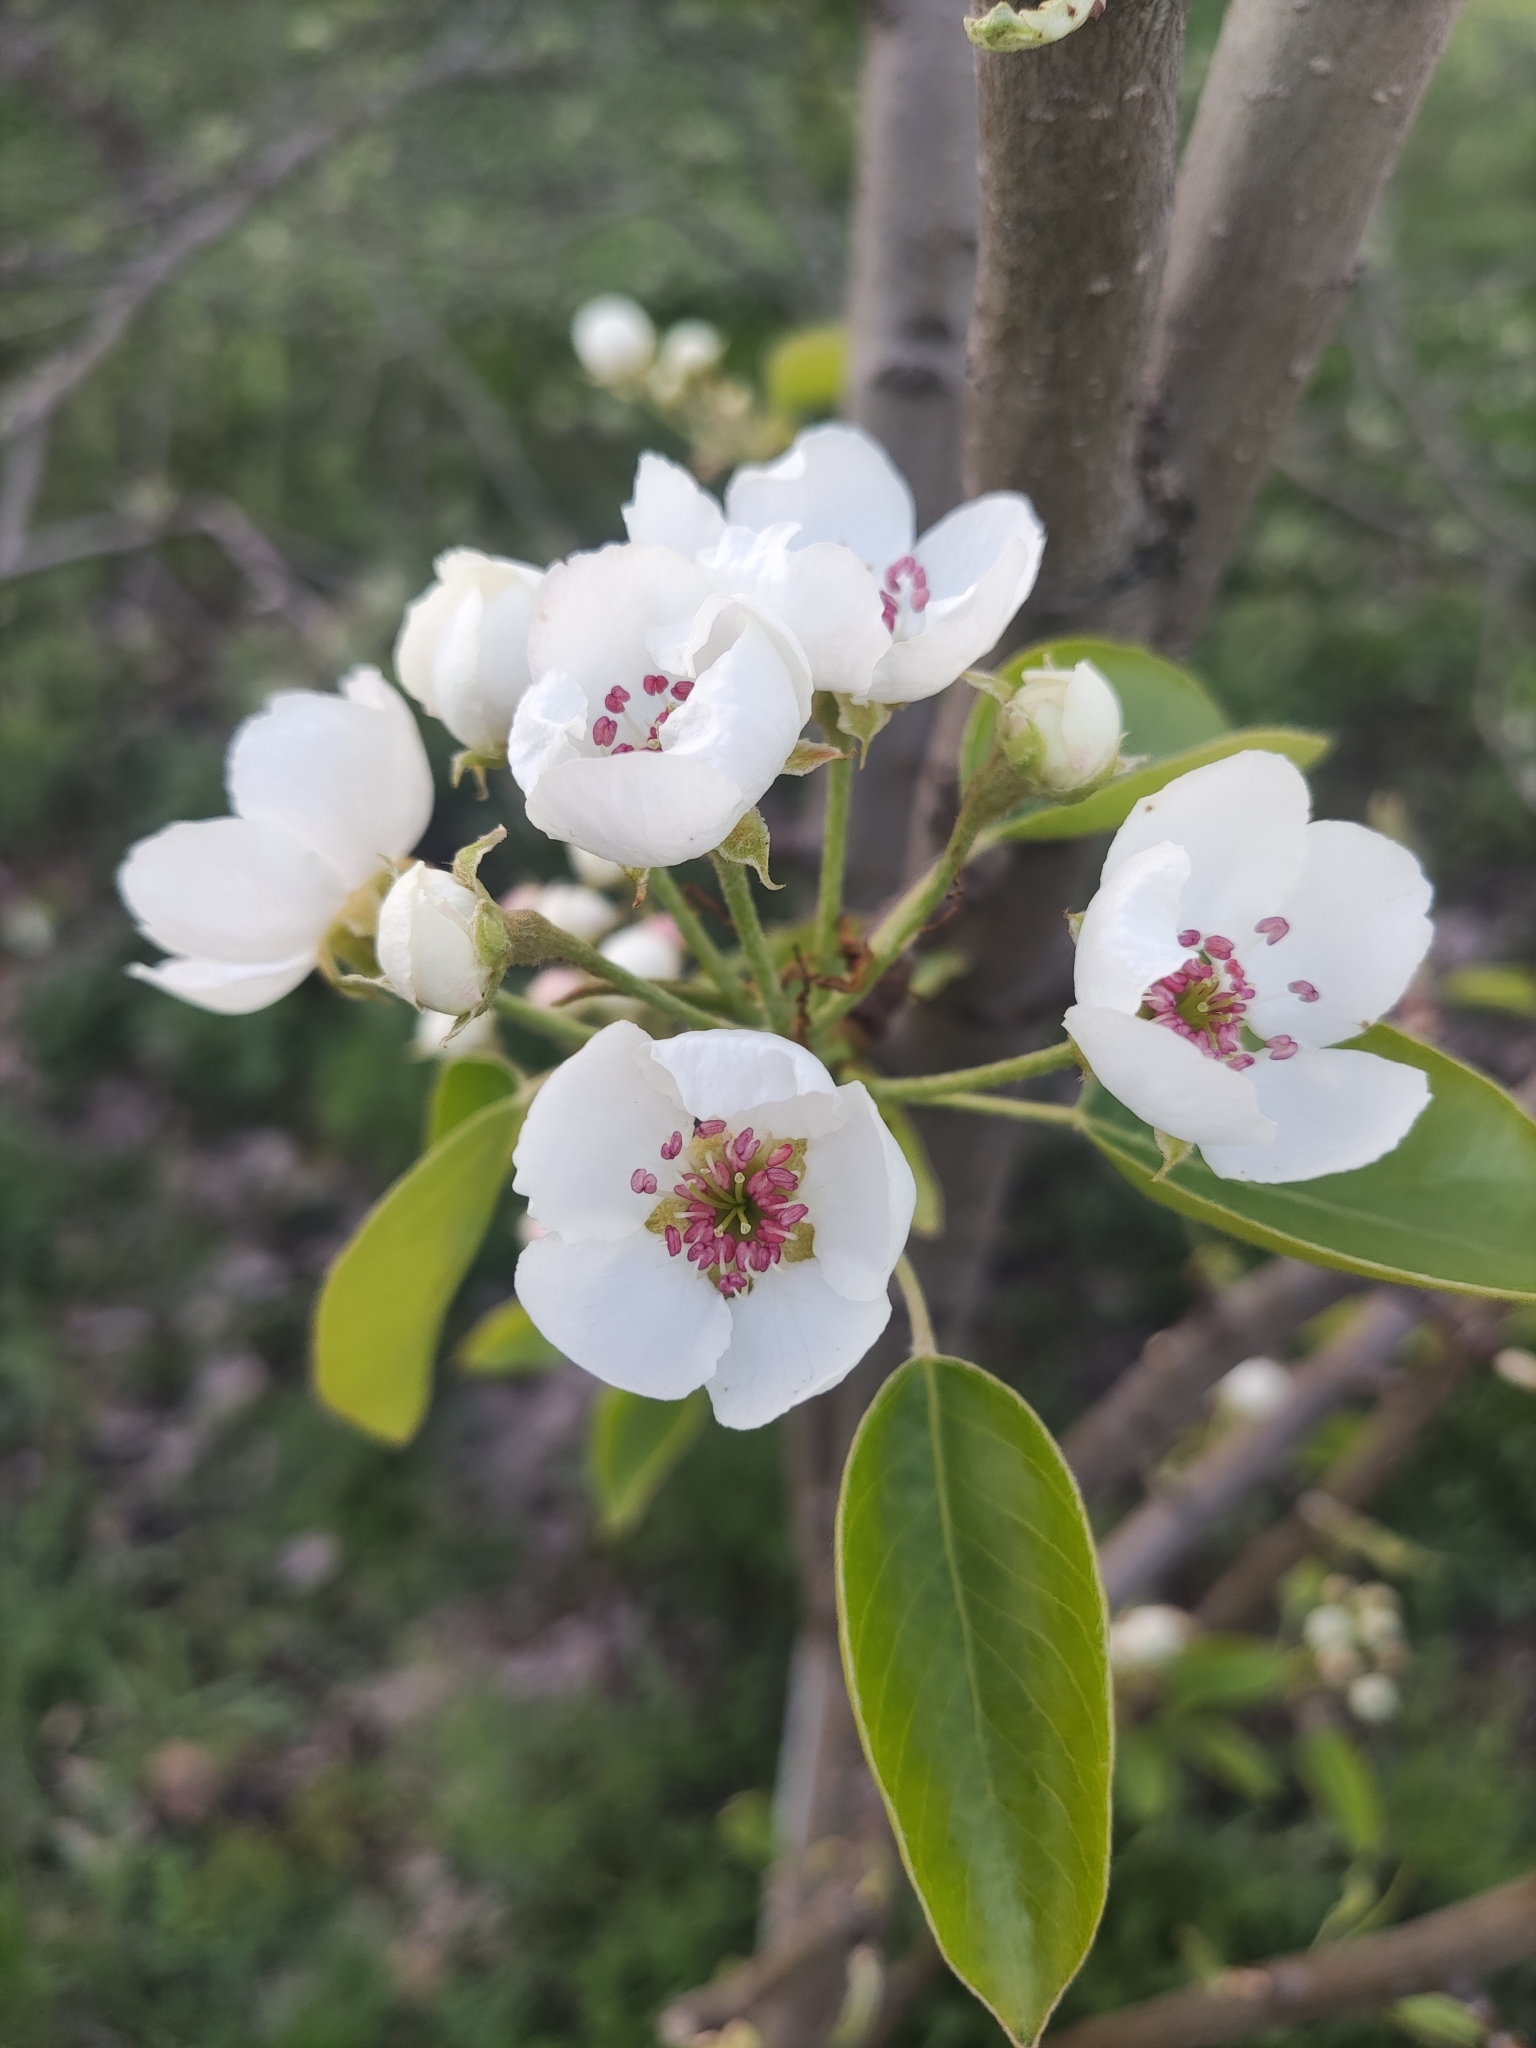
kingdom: Plantae
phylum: Tracheophyta
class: Magnoliopsida
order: Rosales
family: Rosaceae
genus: Pyrus
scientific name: Pyrus communis
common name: Pear
